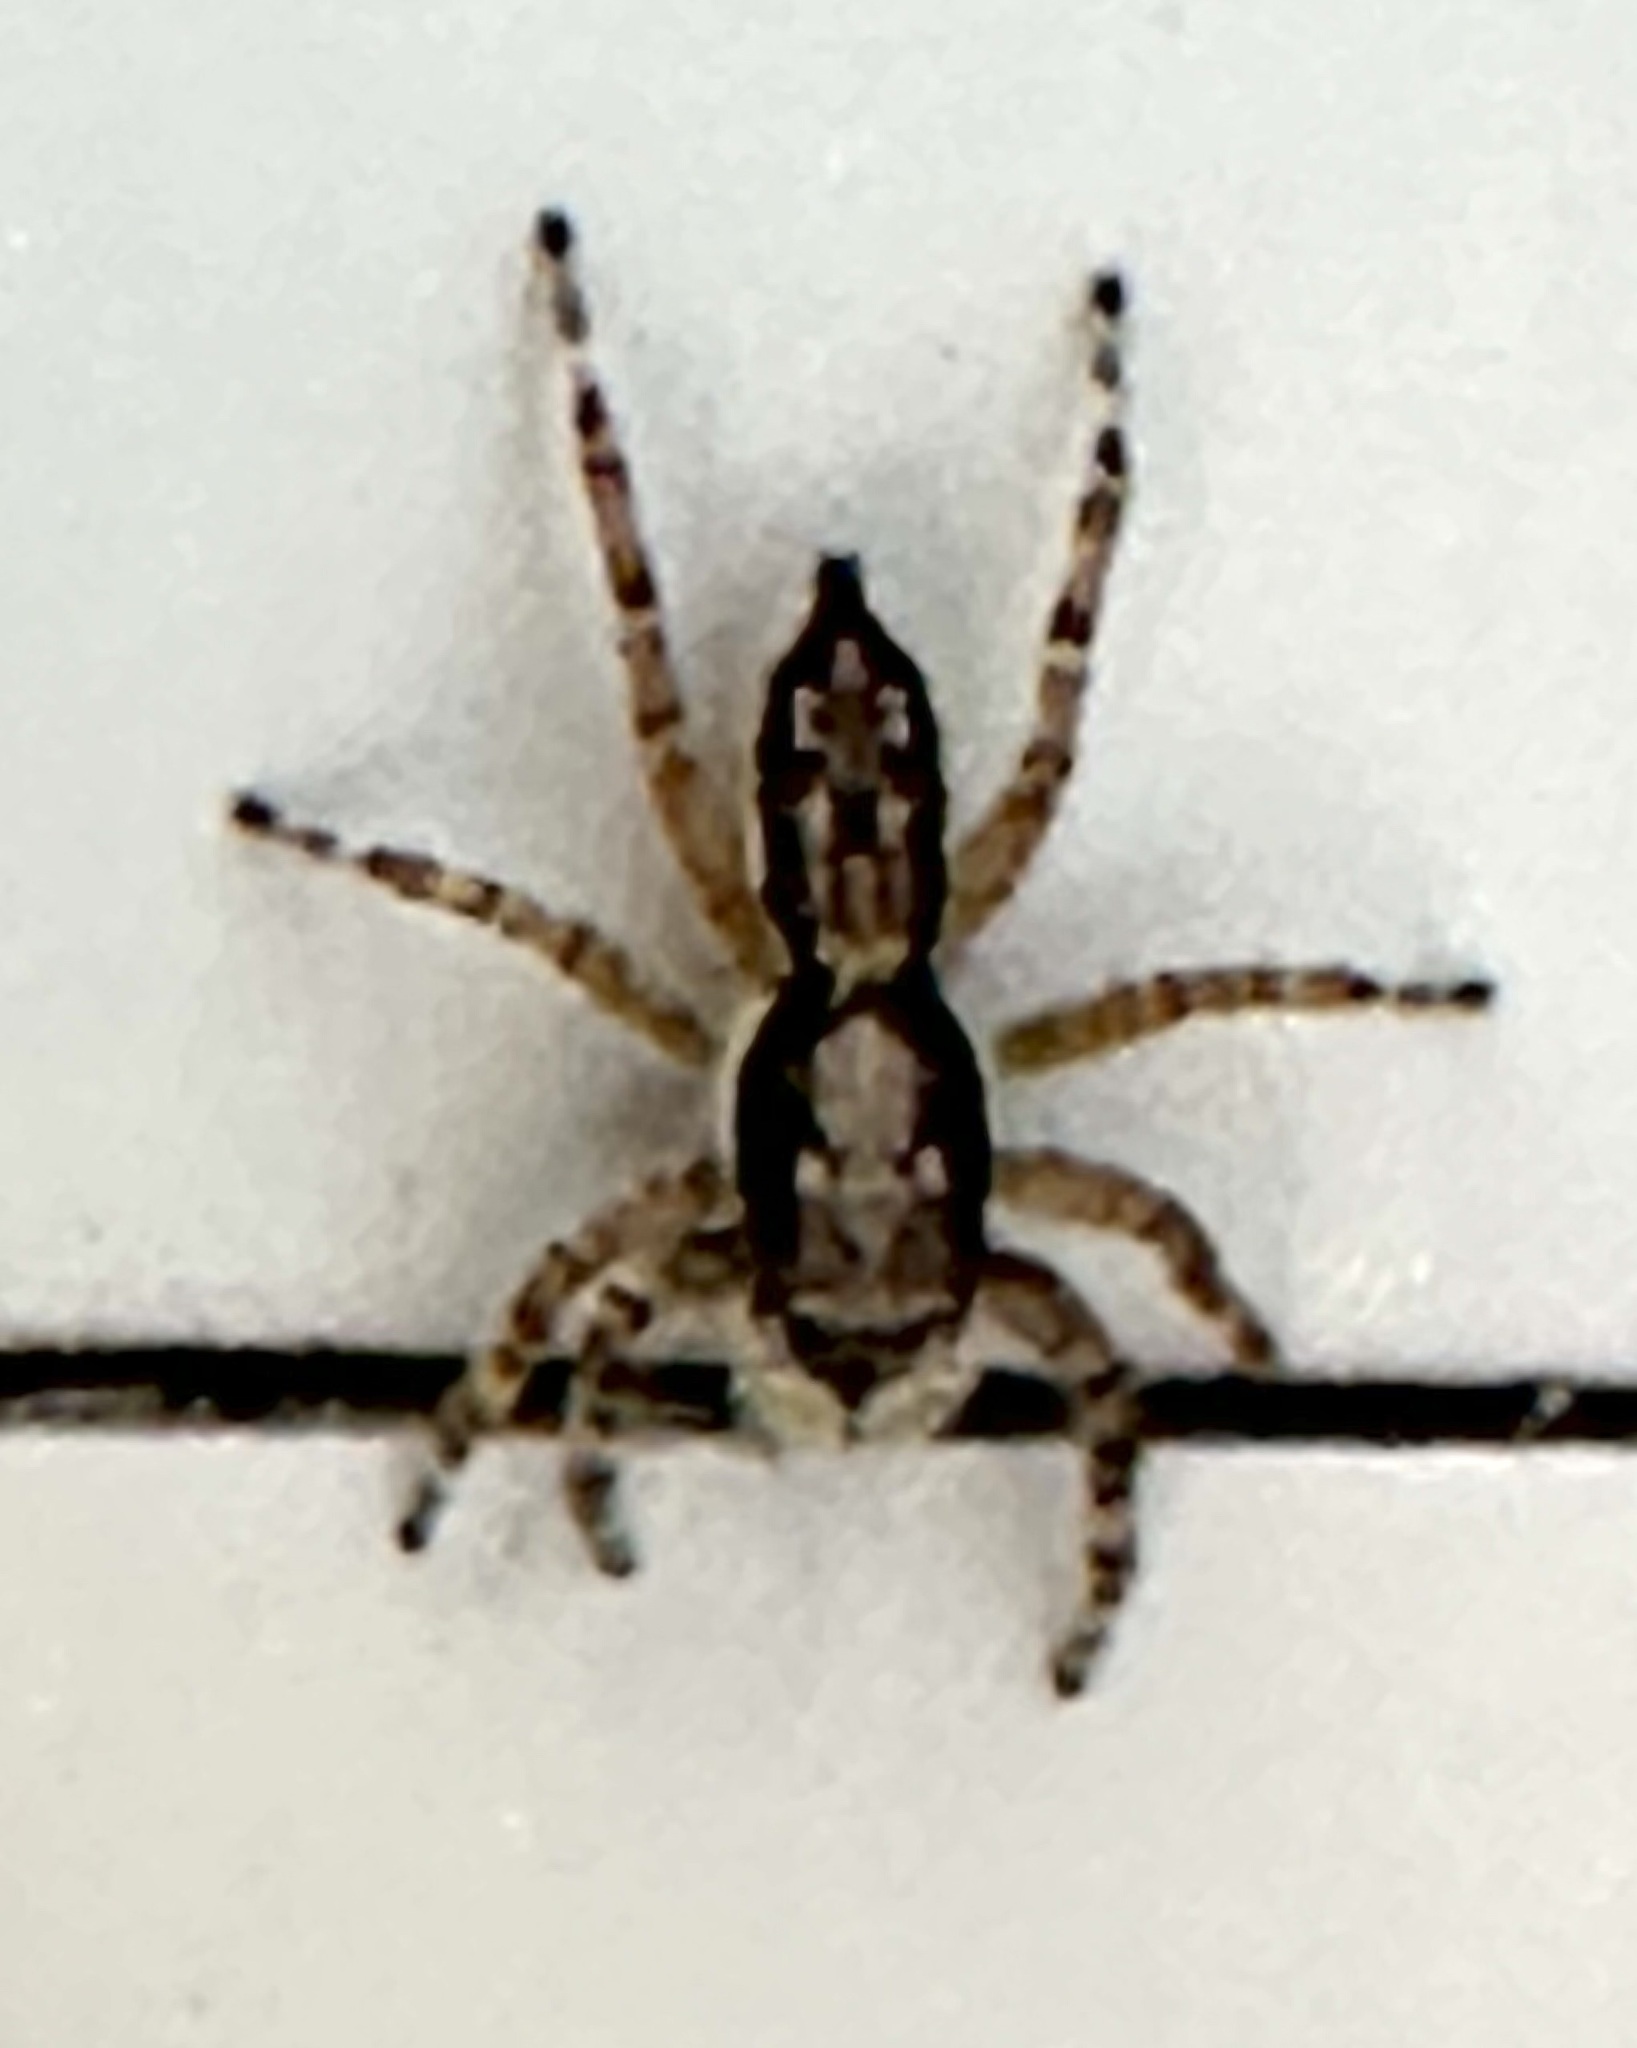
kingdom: Animalia
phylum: Arthropoda
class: Arachnida
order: Araneae
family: Salticidae
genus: Menemerus
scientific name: Menemerus bivittatus
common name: Gray wall jumper
